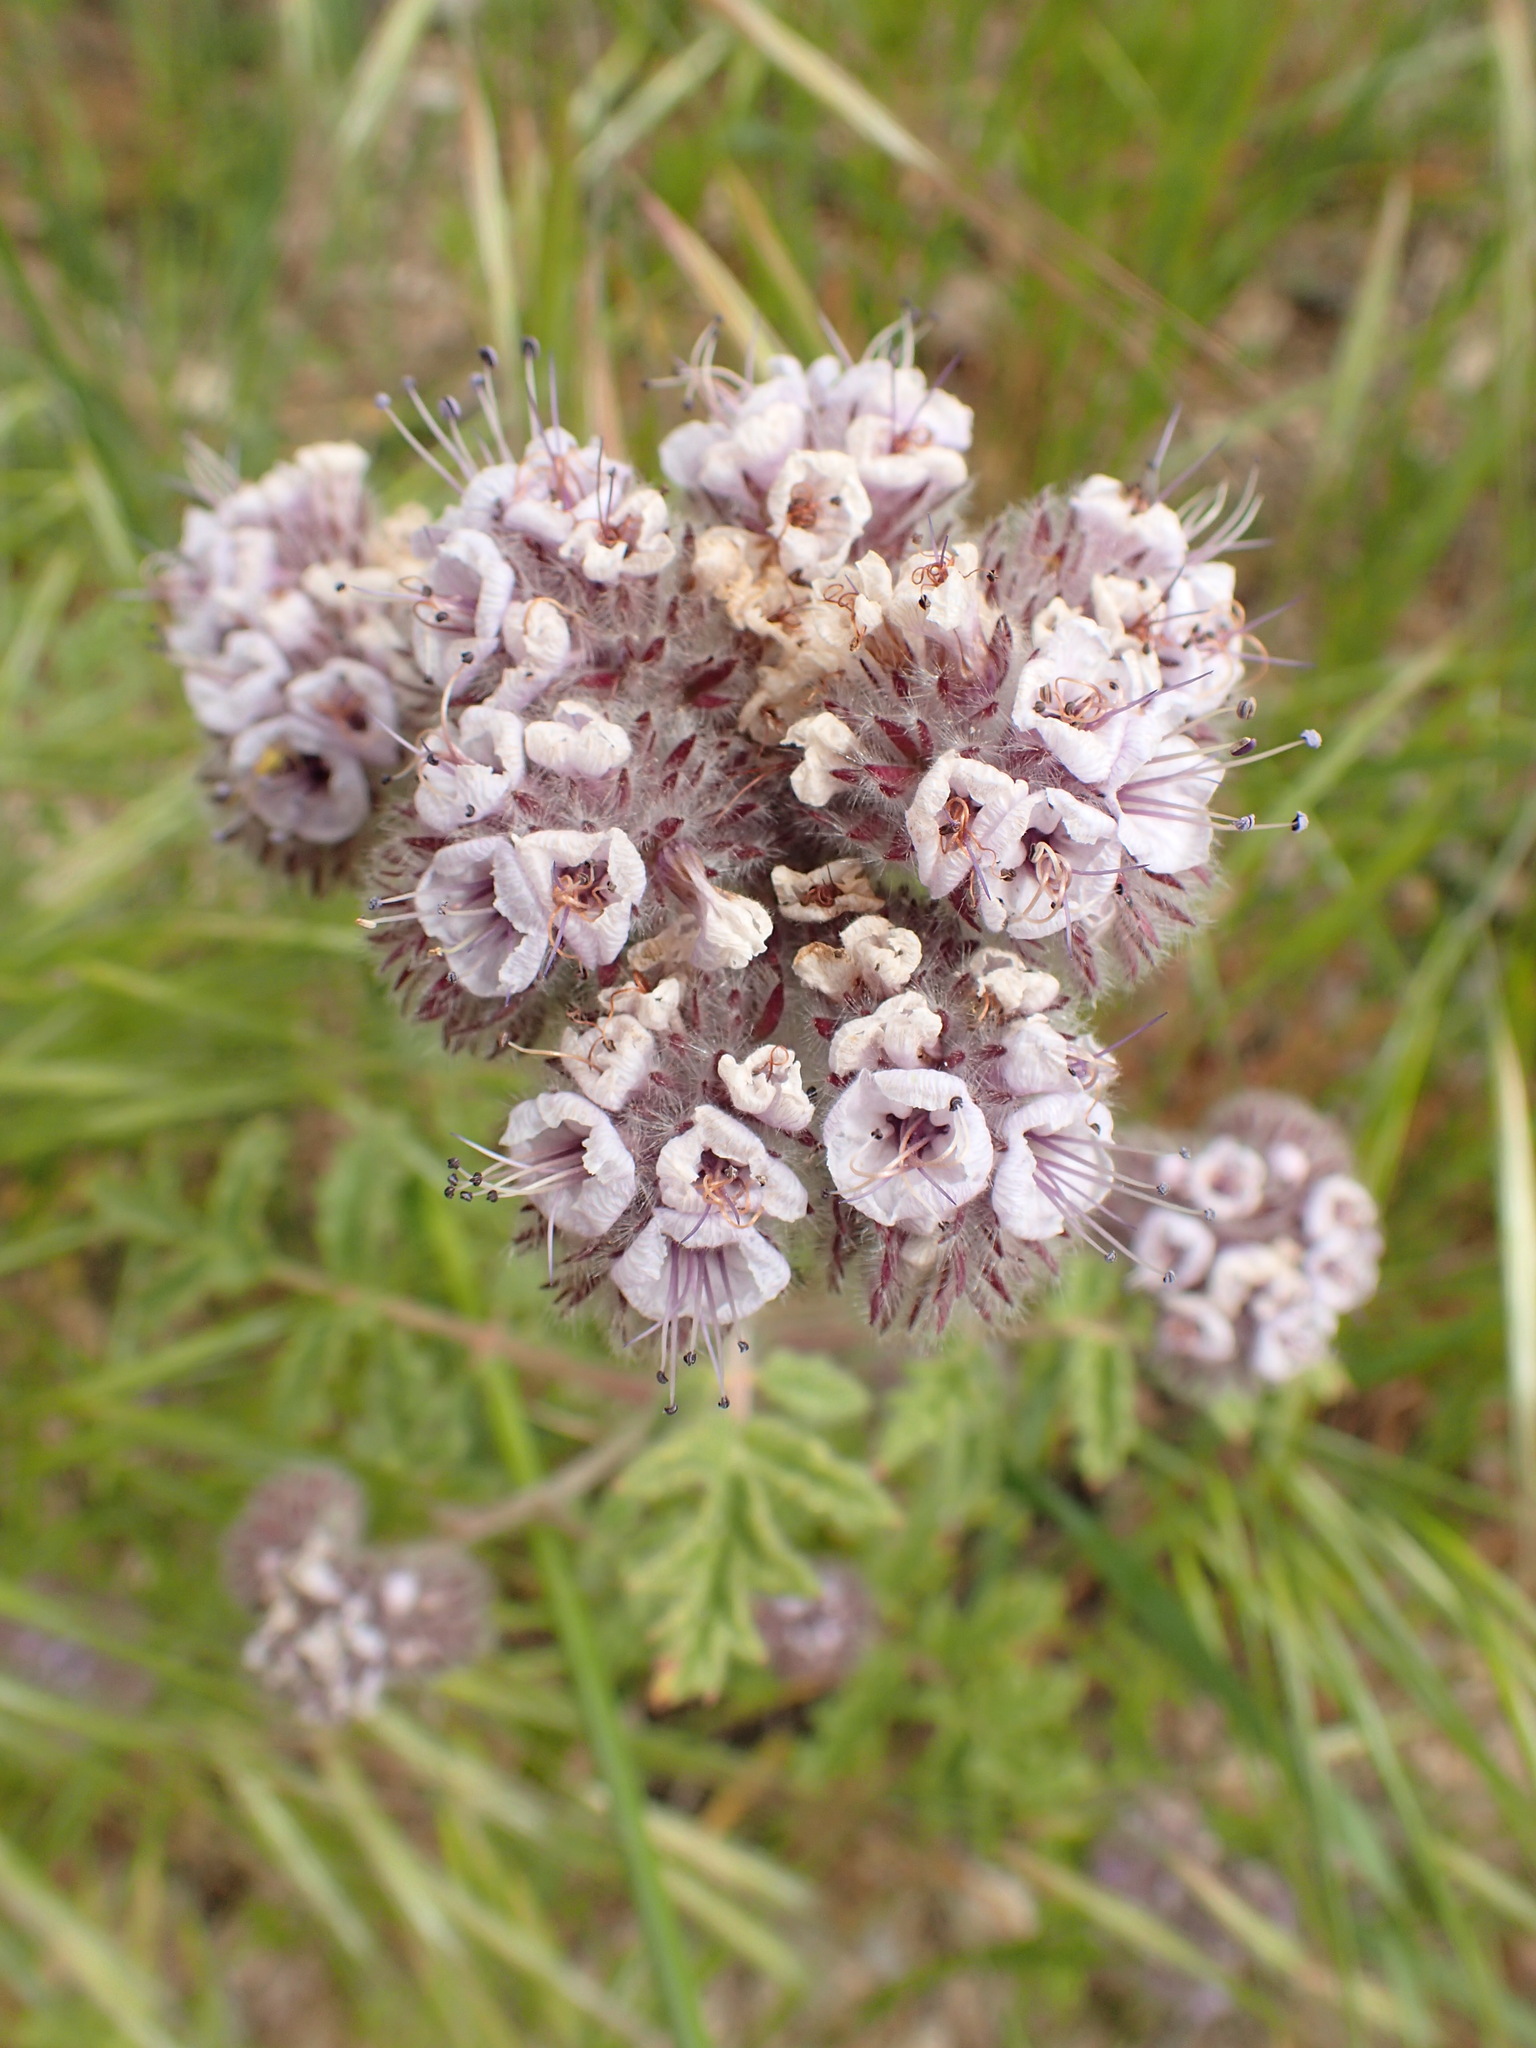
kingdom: Plantae
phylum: Tracheophyta
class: Magnoliopsida
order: Boraginales
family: Hydrophyllaceae
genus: Phacelia
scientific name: Phacelia hubbyi
